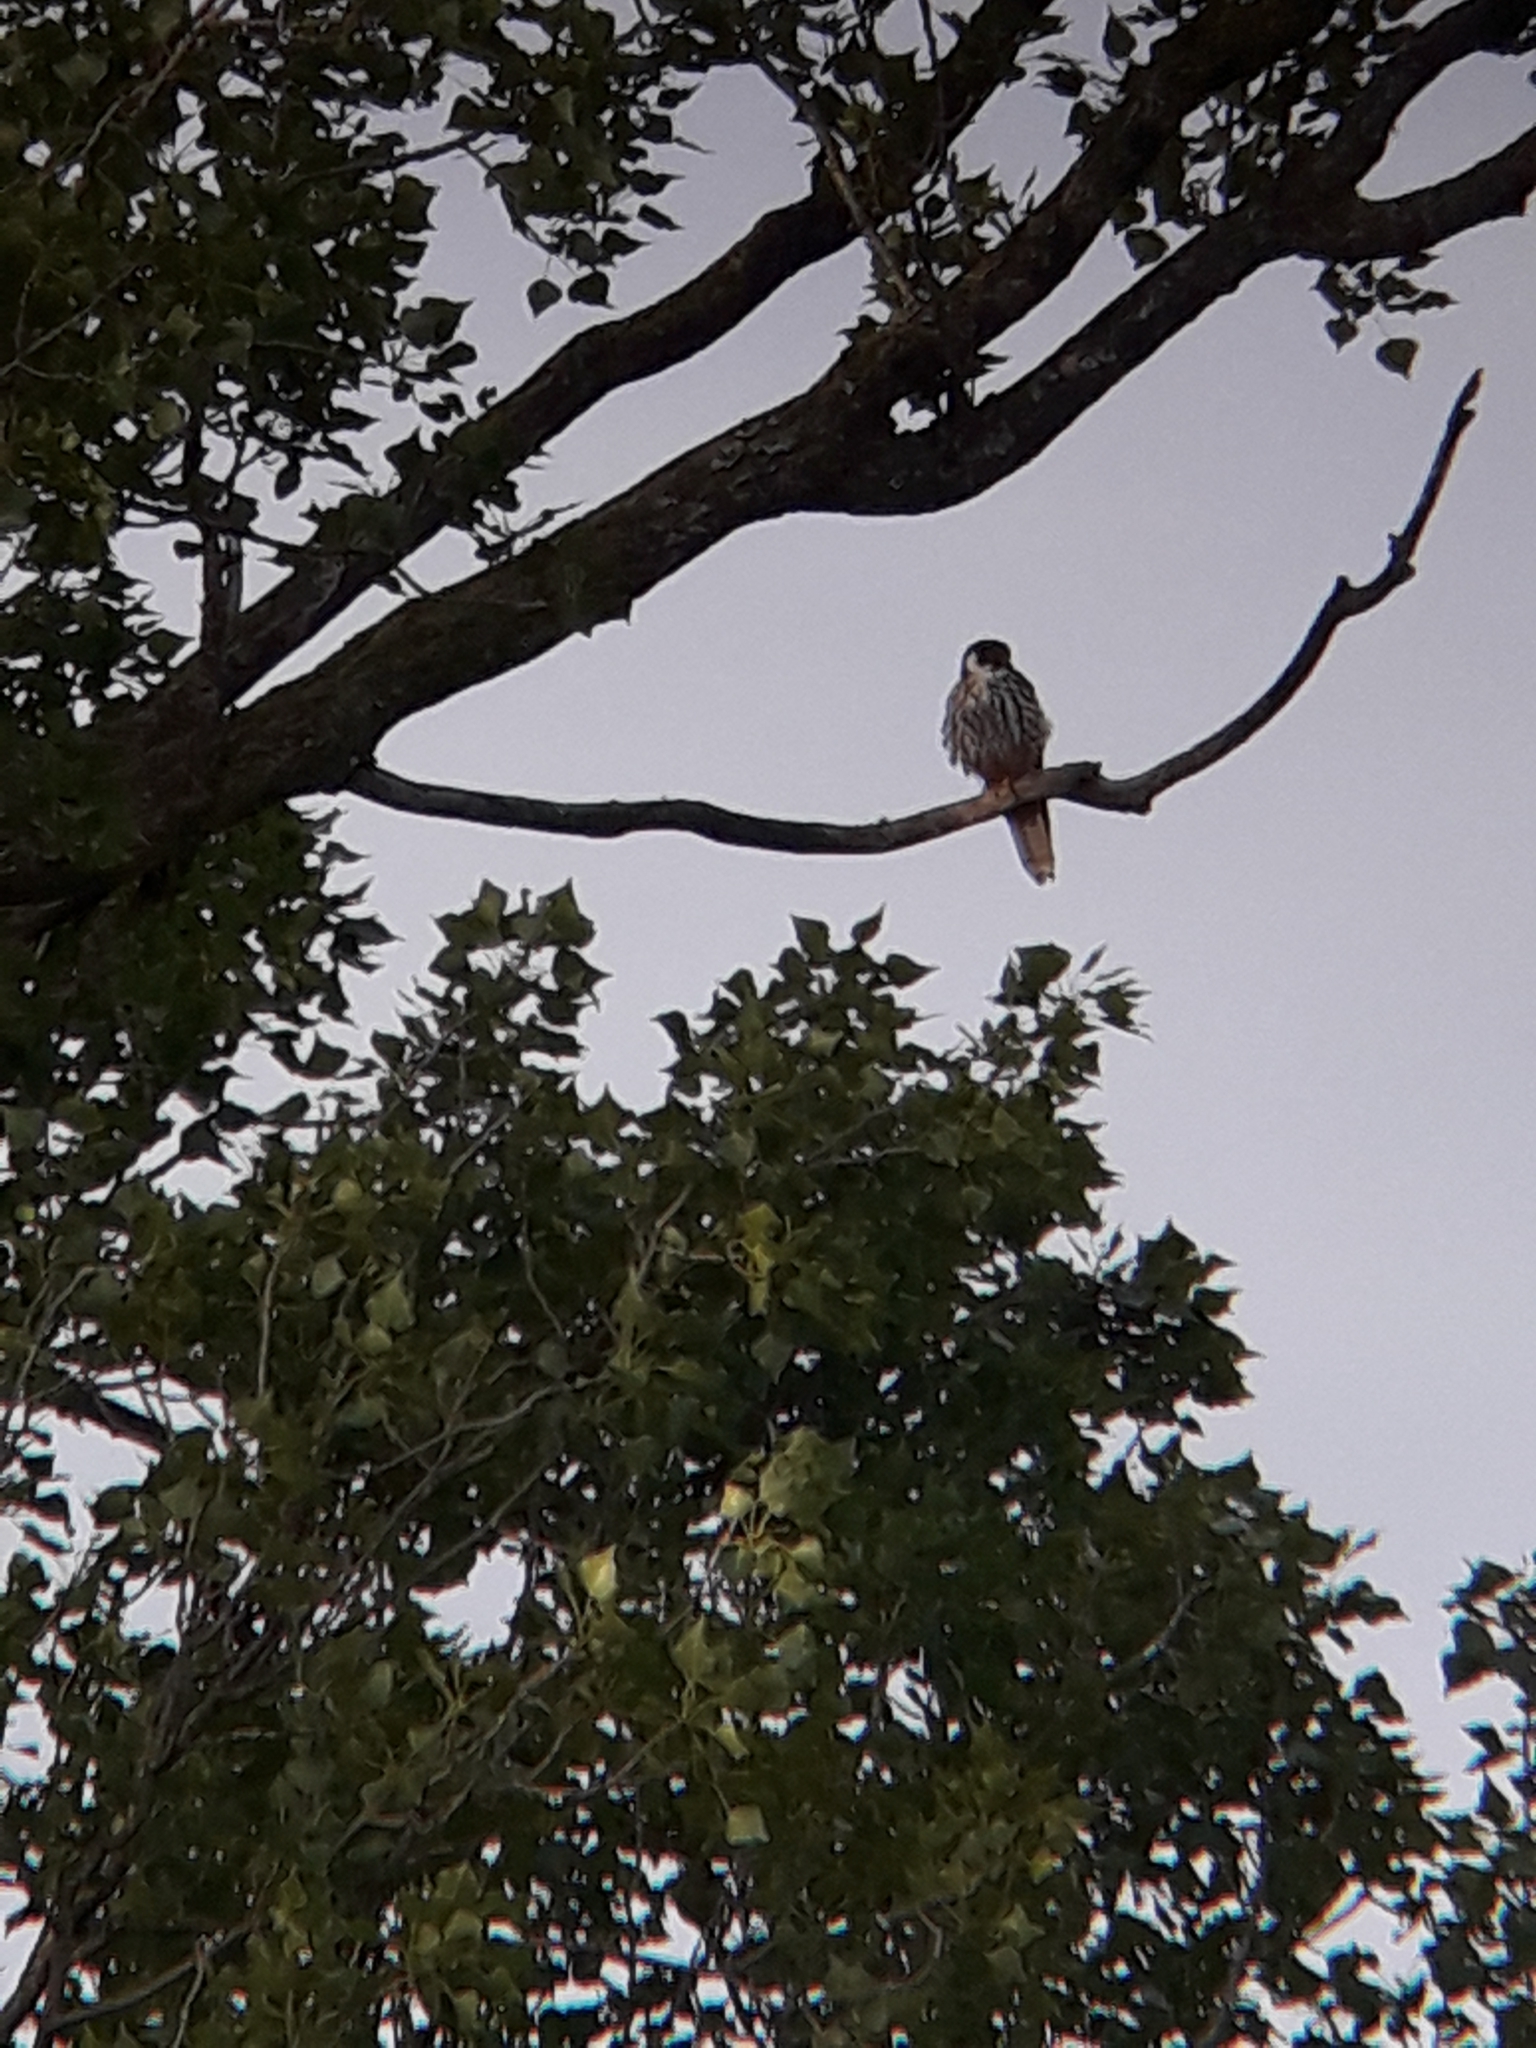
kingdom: Animalia
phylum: Chordata
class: Aves
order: Falconiformes
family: Falconidae
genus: Falco
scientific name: Falco subbuteo
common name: Eurasian hobby
